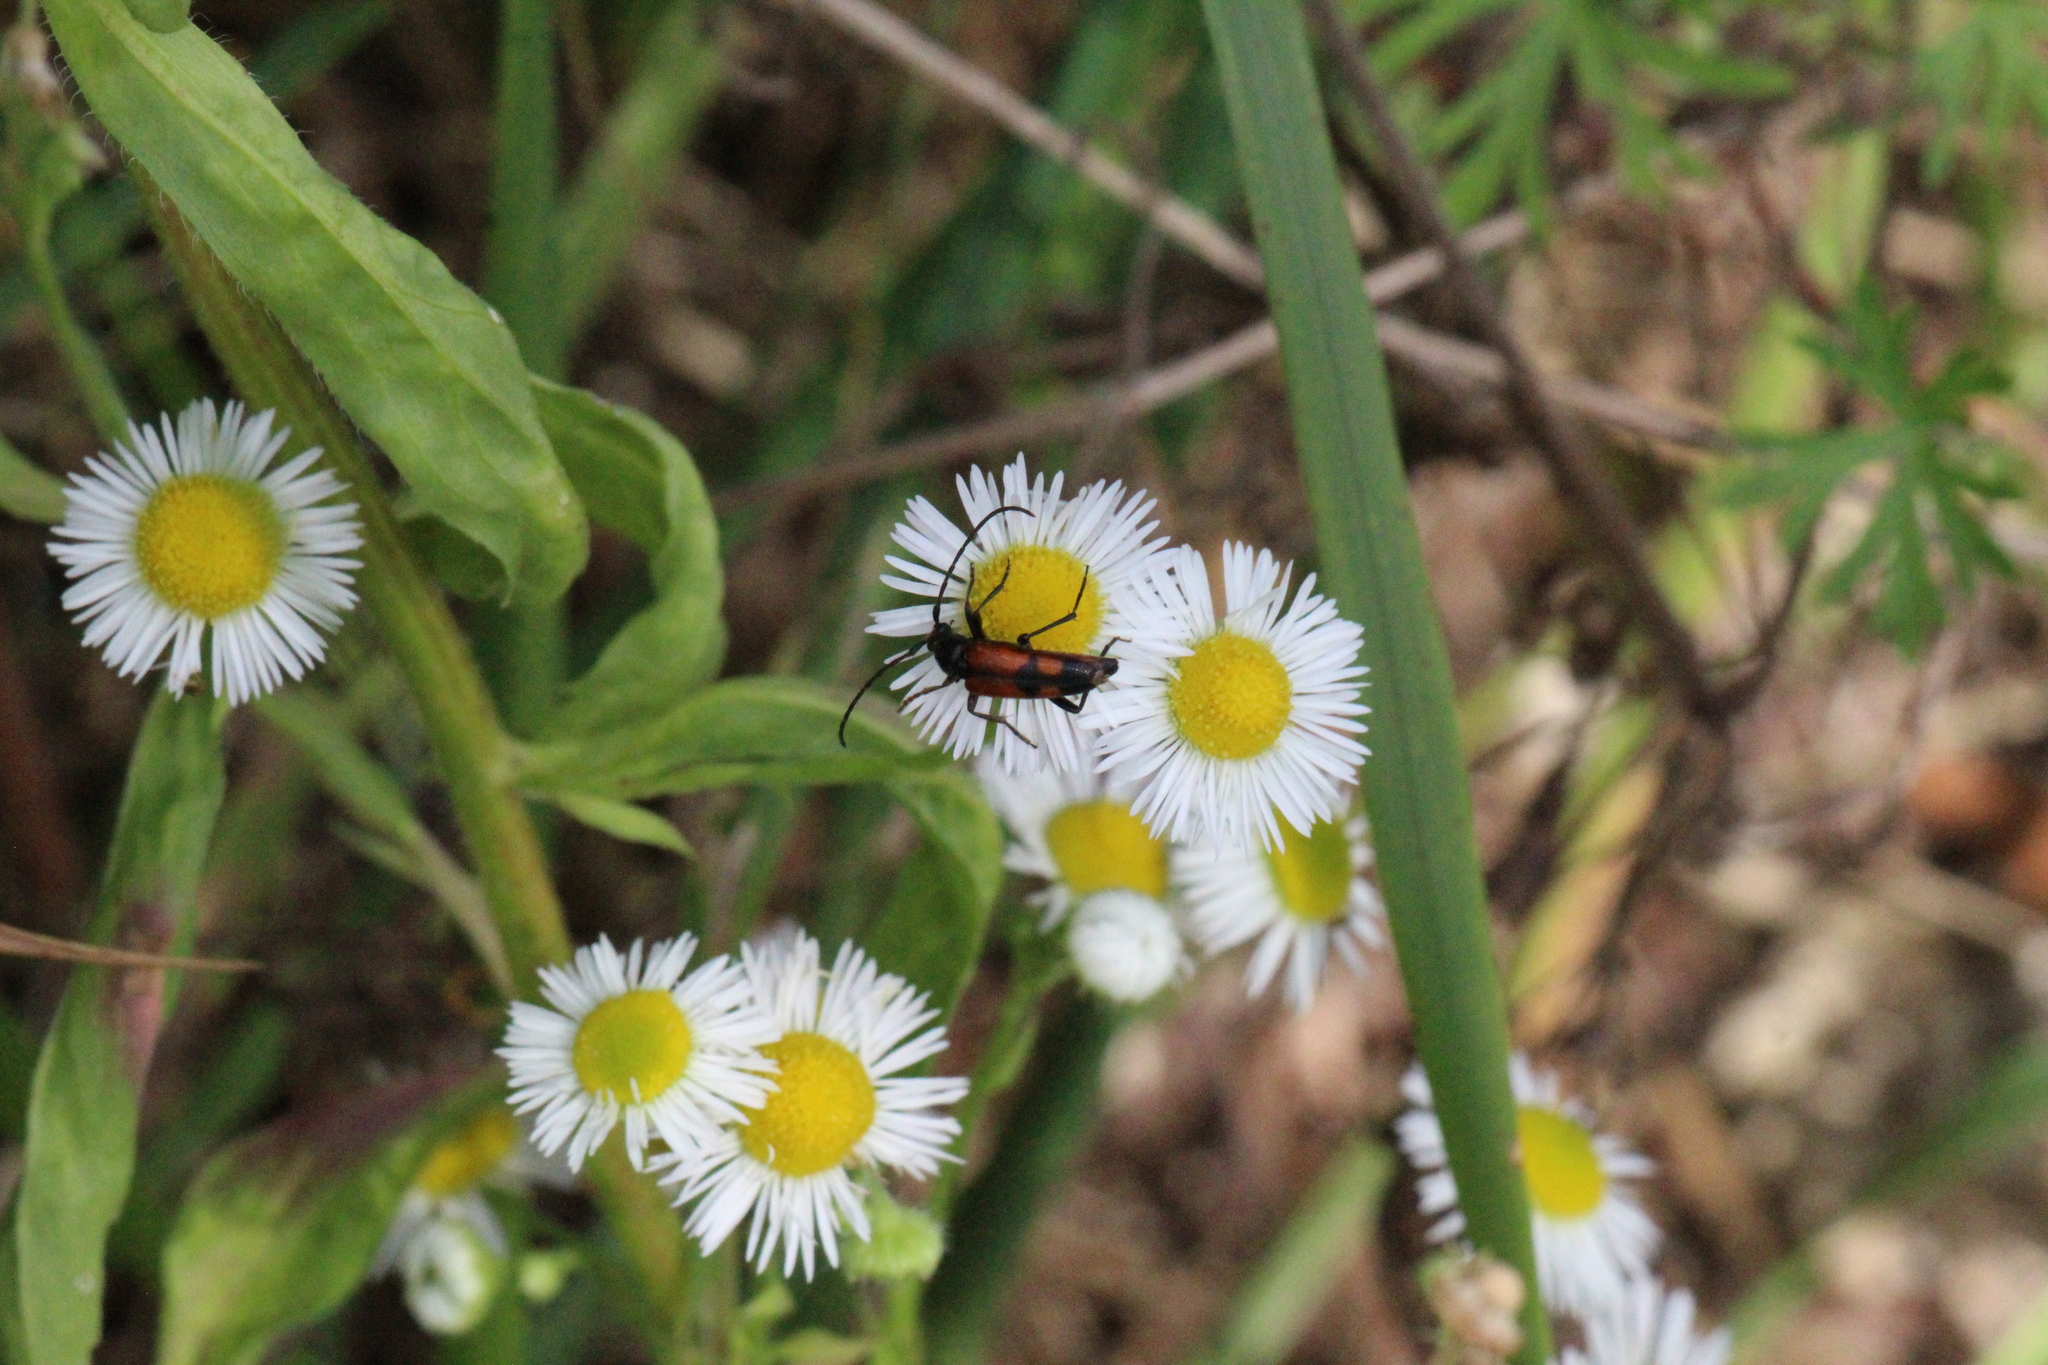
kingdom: Animalia
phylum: Arthropoda
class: Insecta
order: Coleoptera
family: Cerambycidae
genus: Stenurella
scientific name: Stenurella bifasciata
